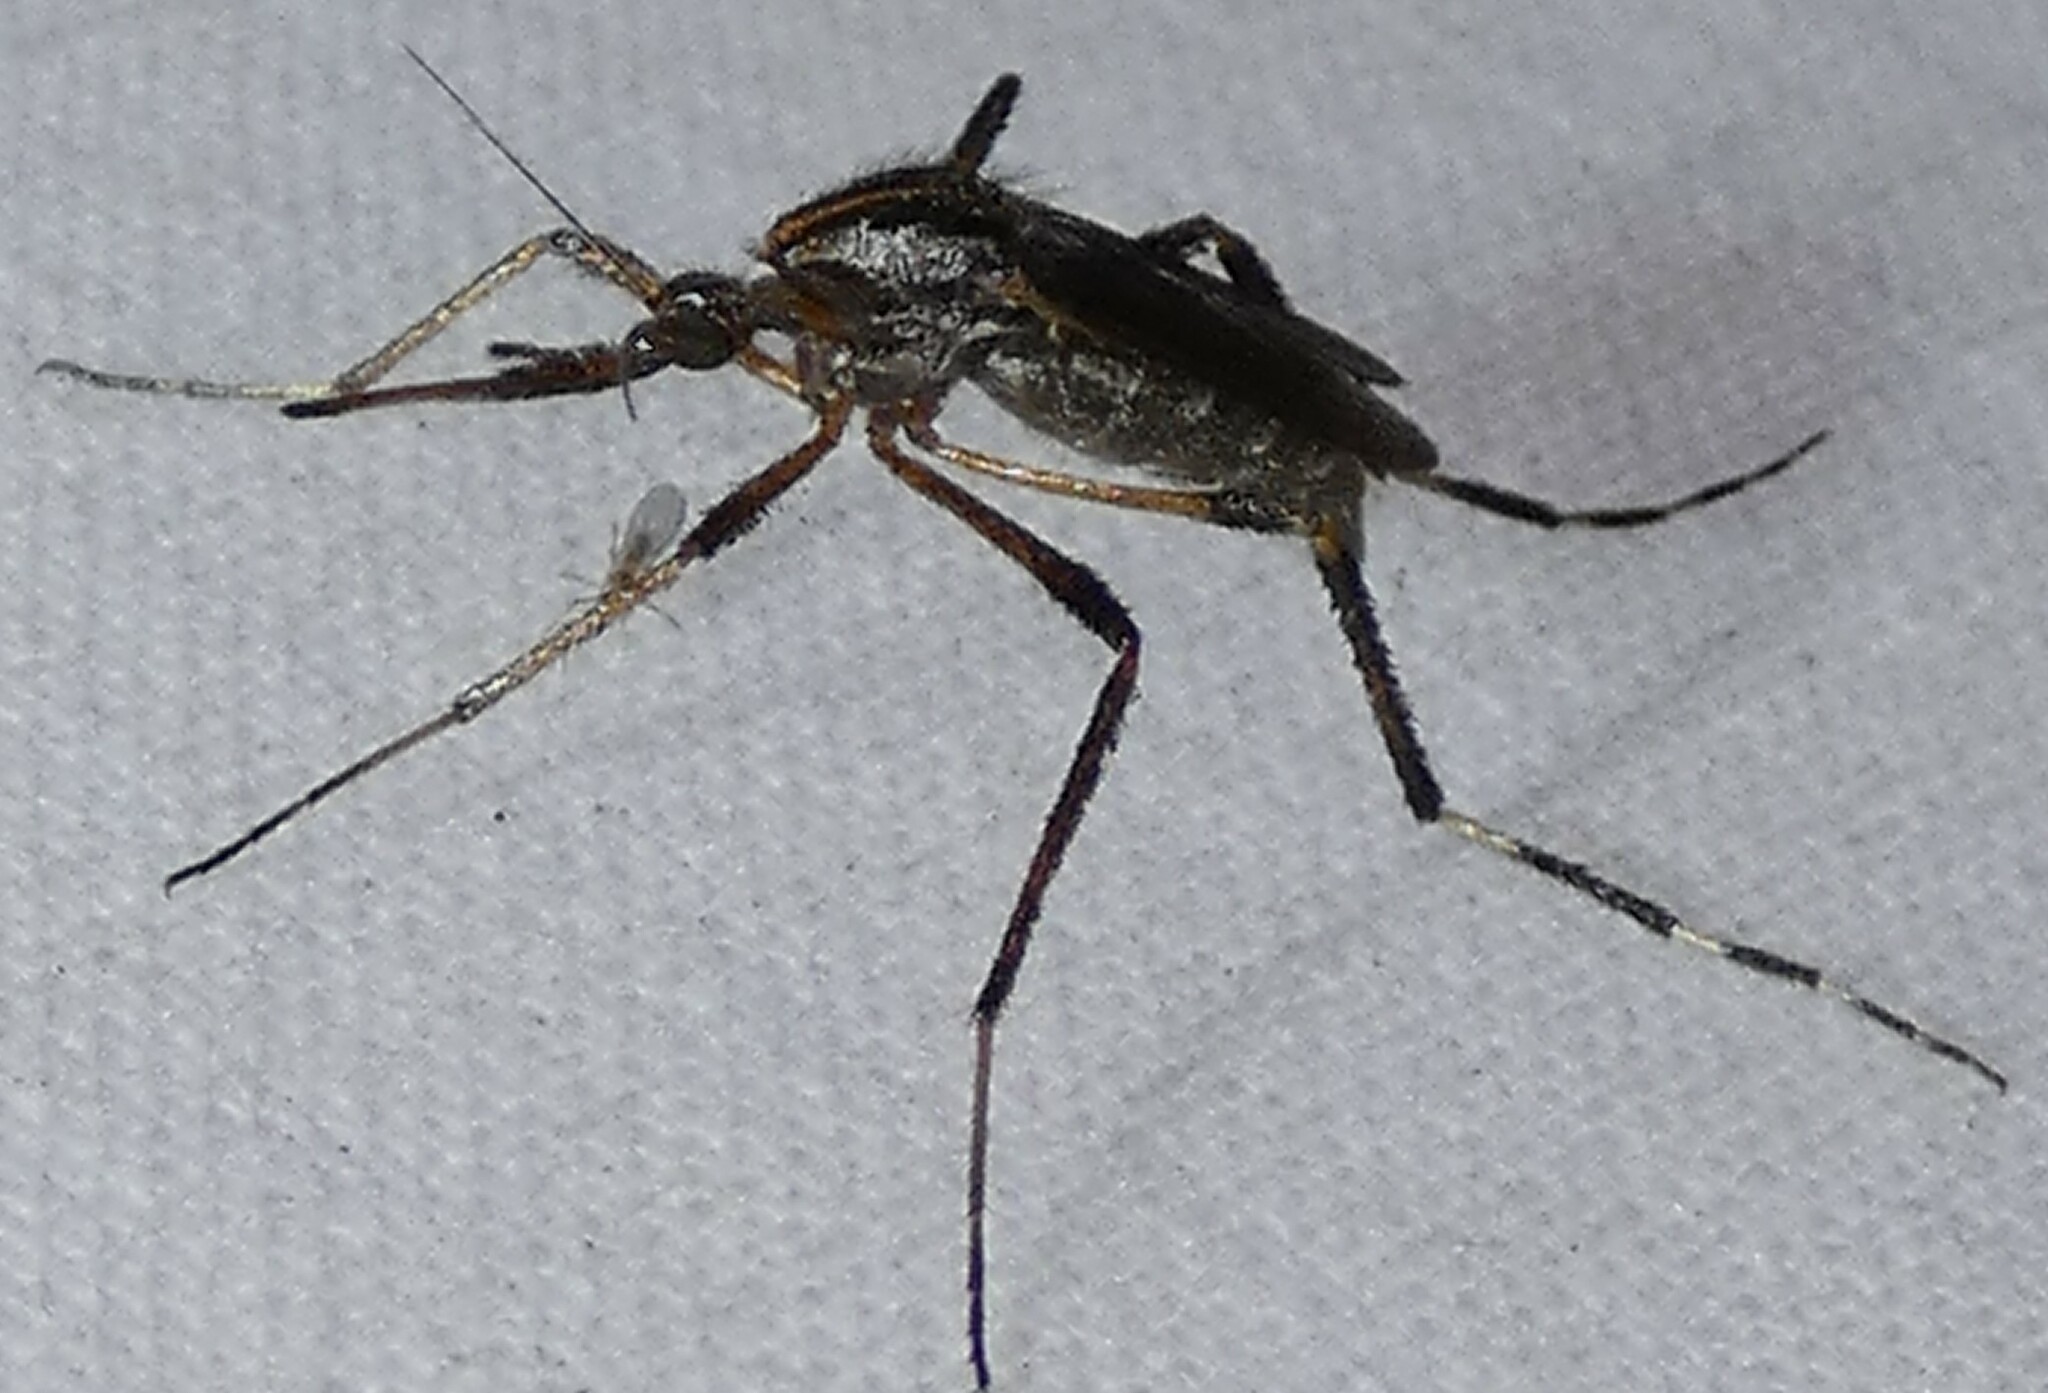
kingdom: Animalia
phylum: Arthropoda
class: Insecta
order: Diptera
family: Culicidae
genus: Psorophora
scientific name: Psorophora ciliata
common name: Gallinipper
